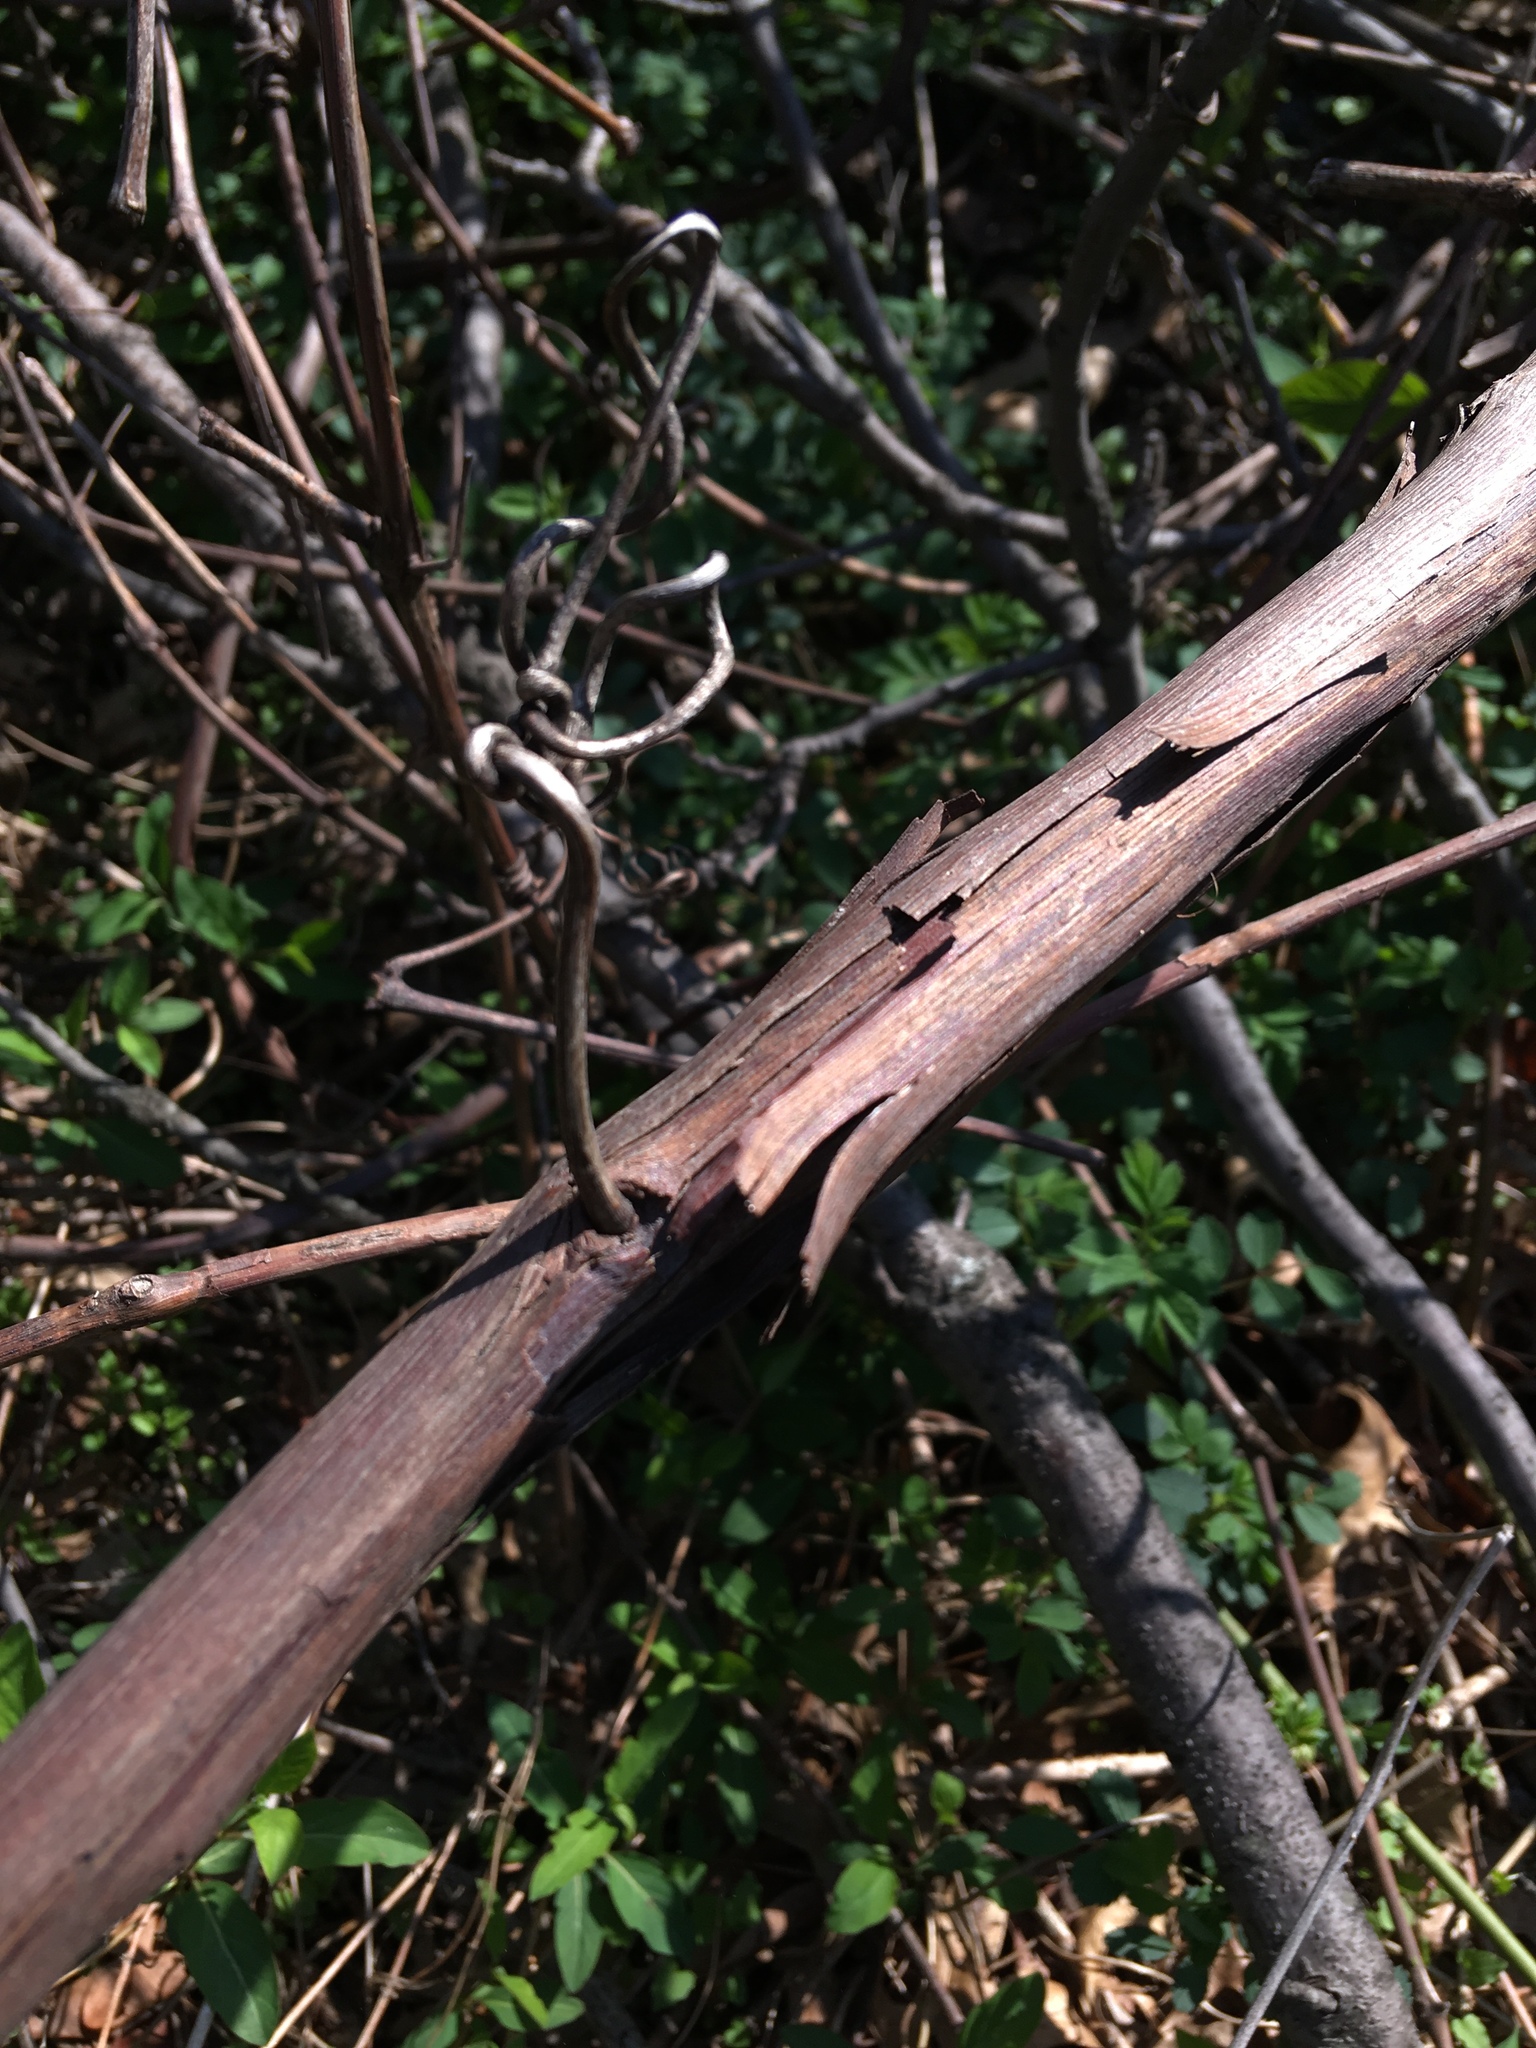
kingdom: Plantae
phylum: Tracheophyta
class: Magnoliopsida
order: Vitales
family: Vitaceae
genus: Vitis
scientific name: Vitis
